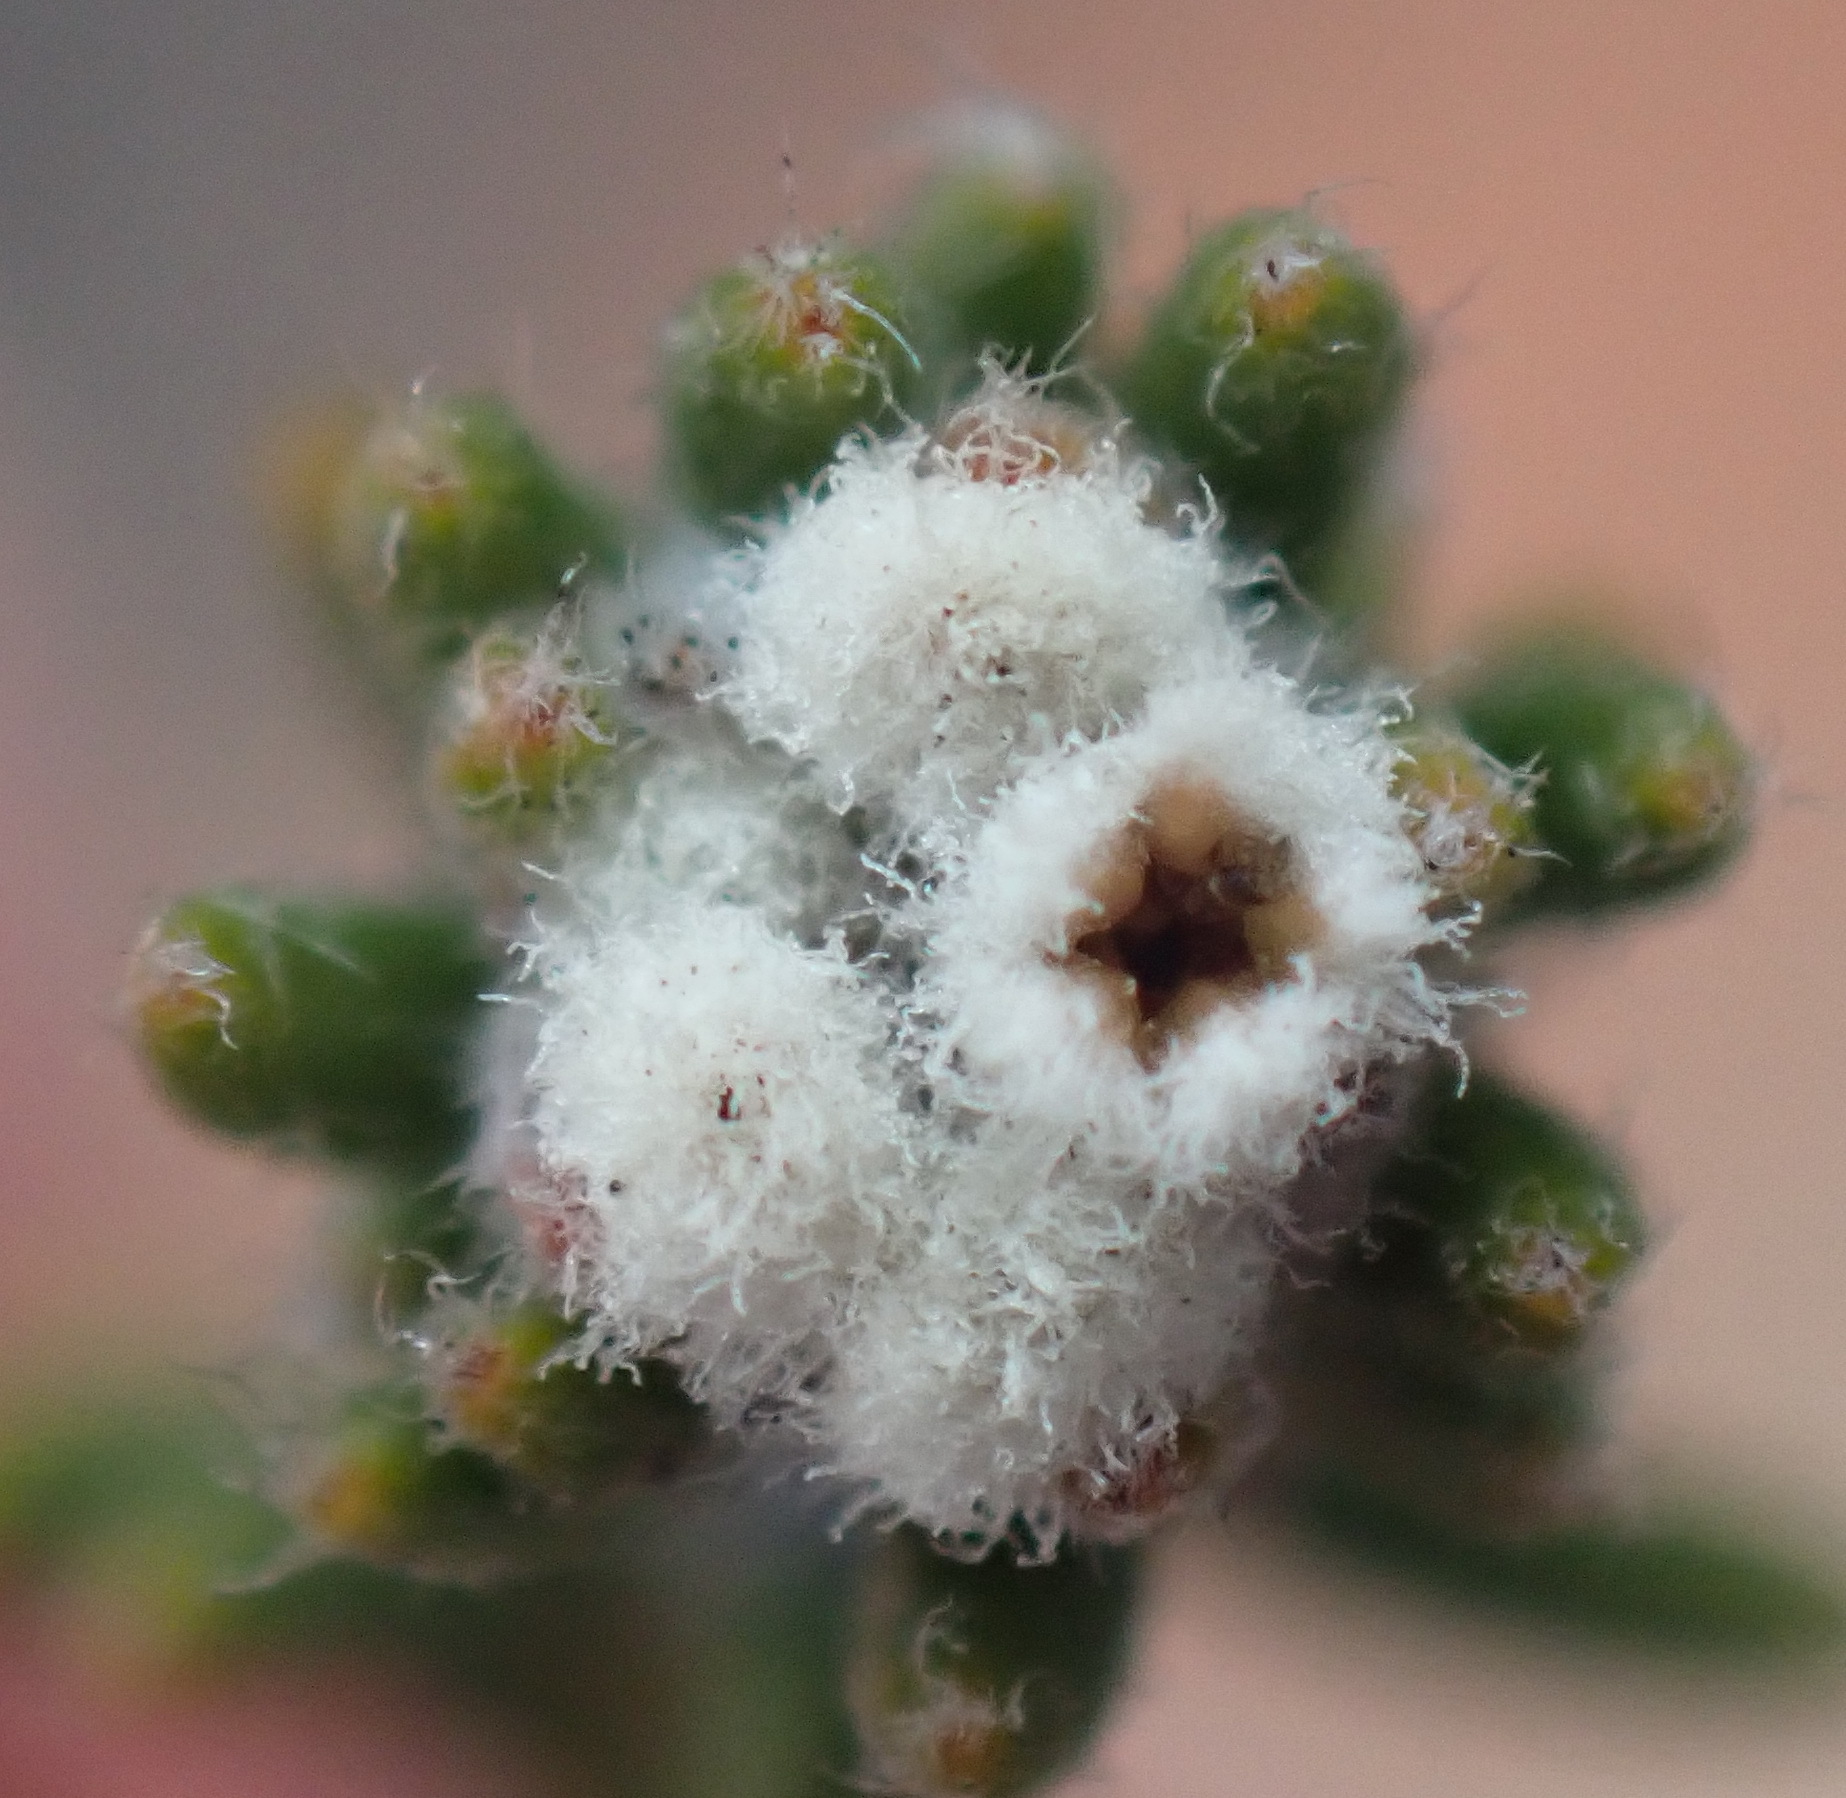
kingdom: Plantae
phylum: Tracheophyta
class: Magnoliopsida
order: Rosales
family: Rhamnaceae
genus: Phylica
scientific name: Phylica karroica
